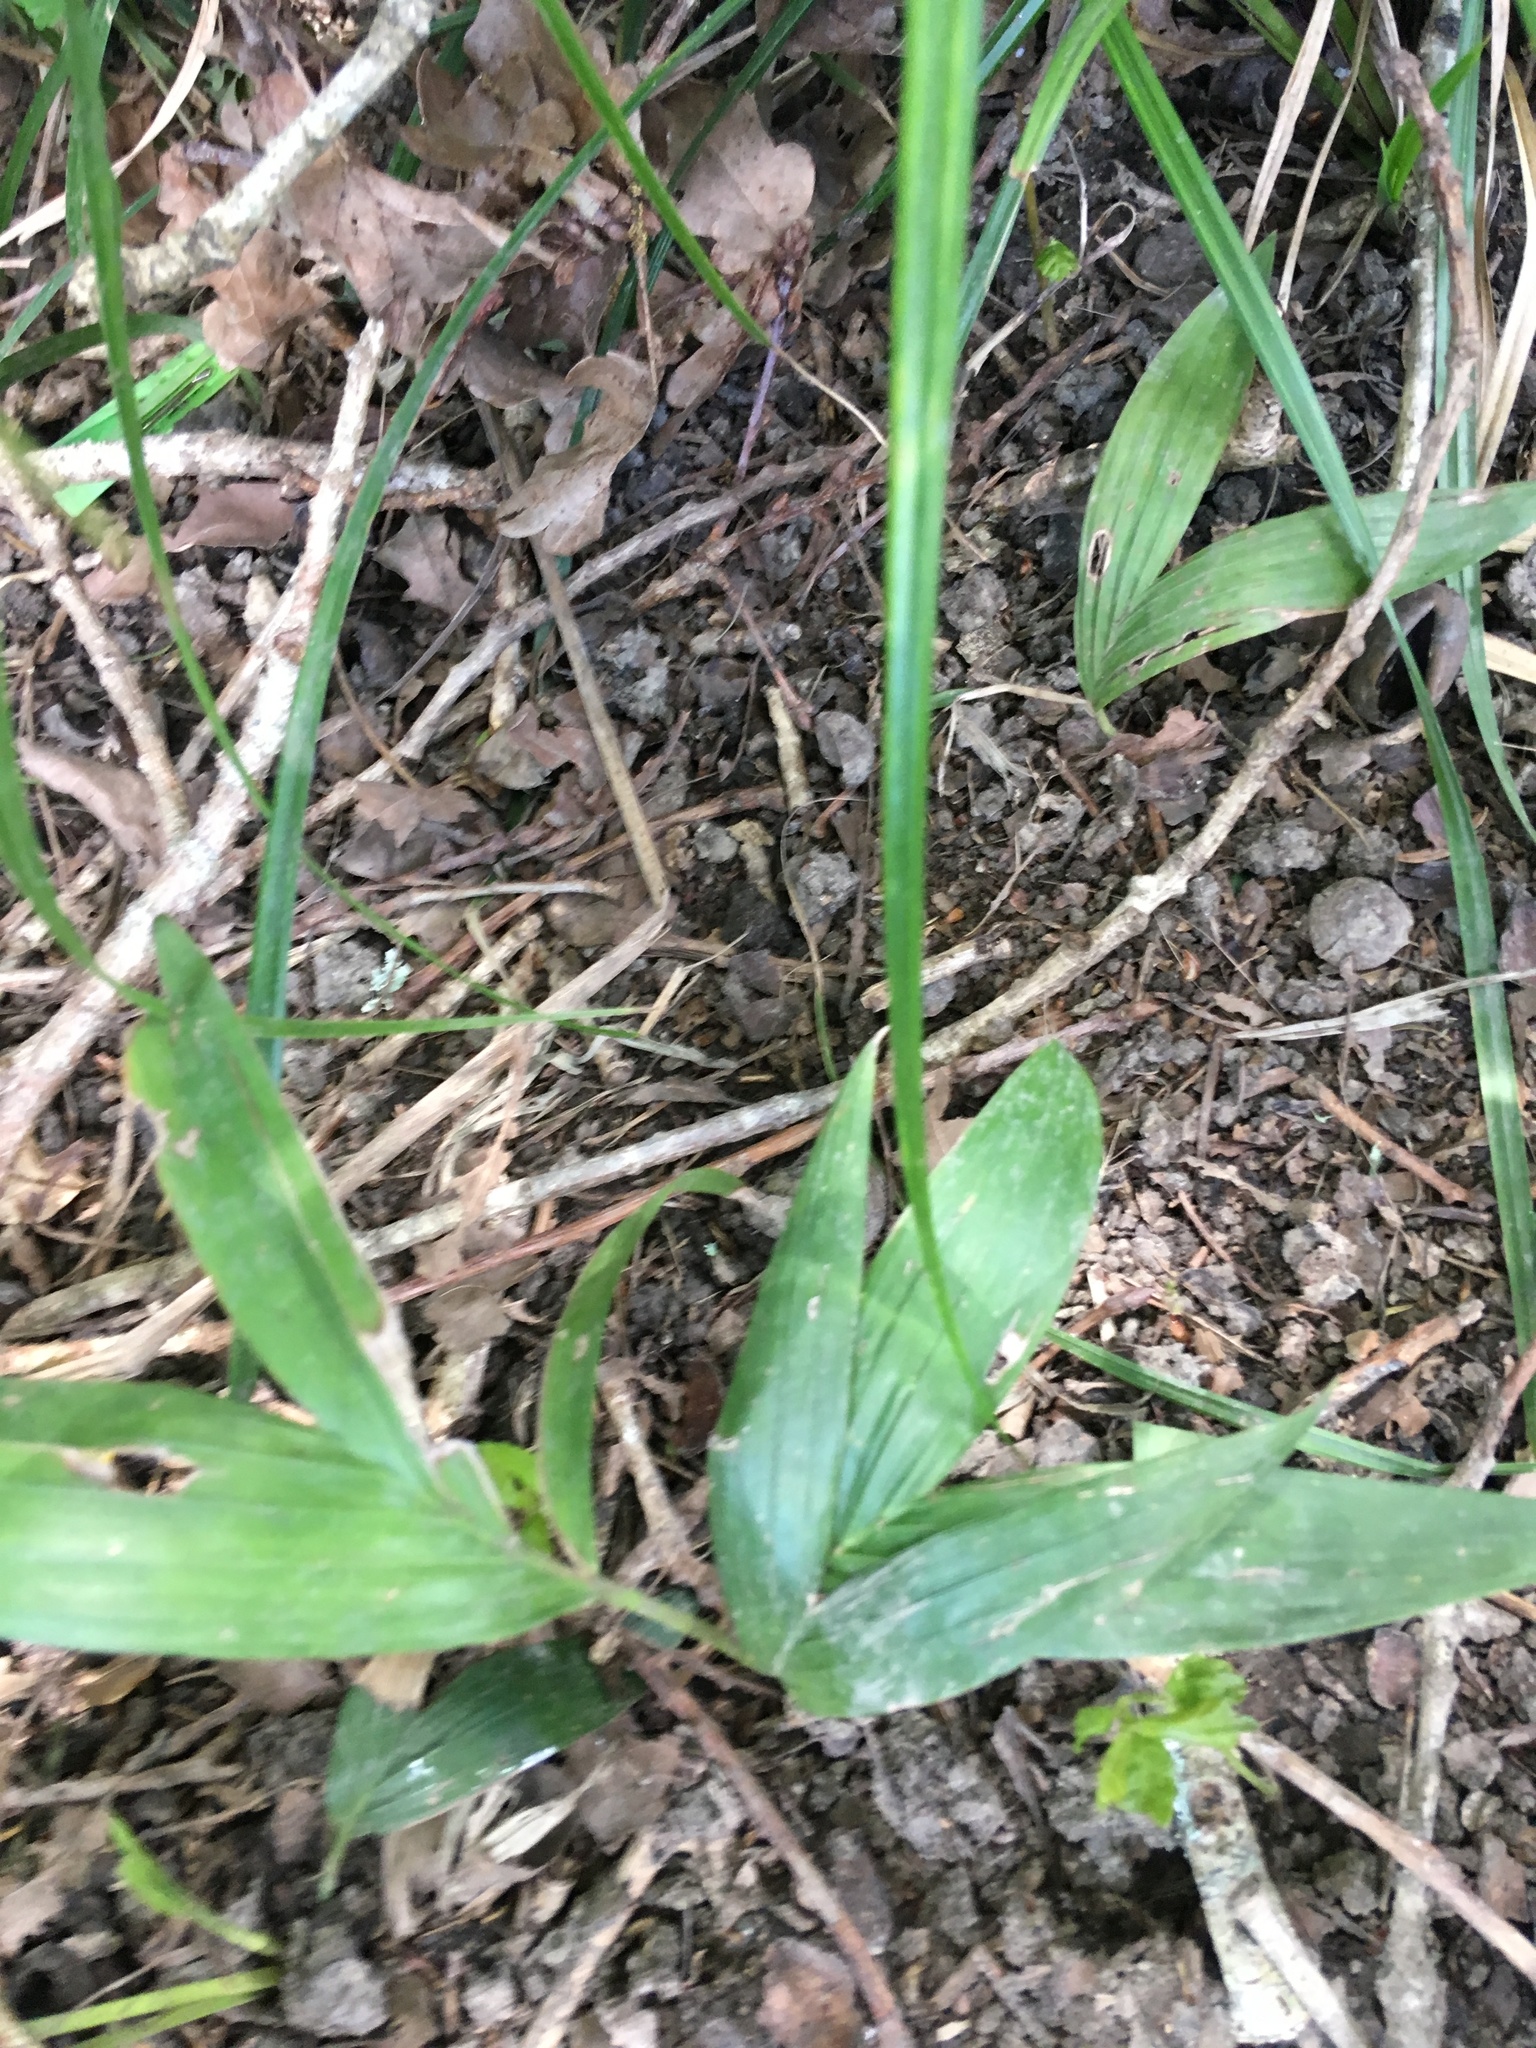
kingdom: Plantae
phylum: Tracheophyta
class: Liliopsida
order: Arecales
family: Arecaceae
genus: Archontophoenix
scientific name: Archontophoenix cunninghamiana
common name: Piccabeen bangalow palm
